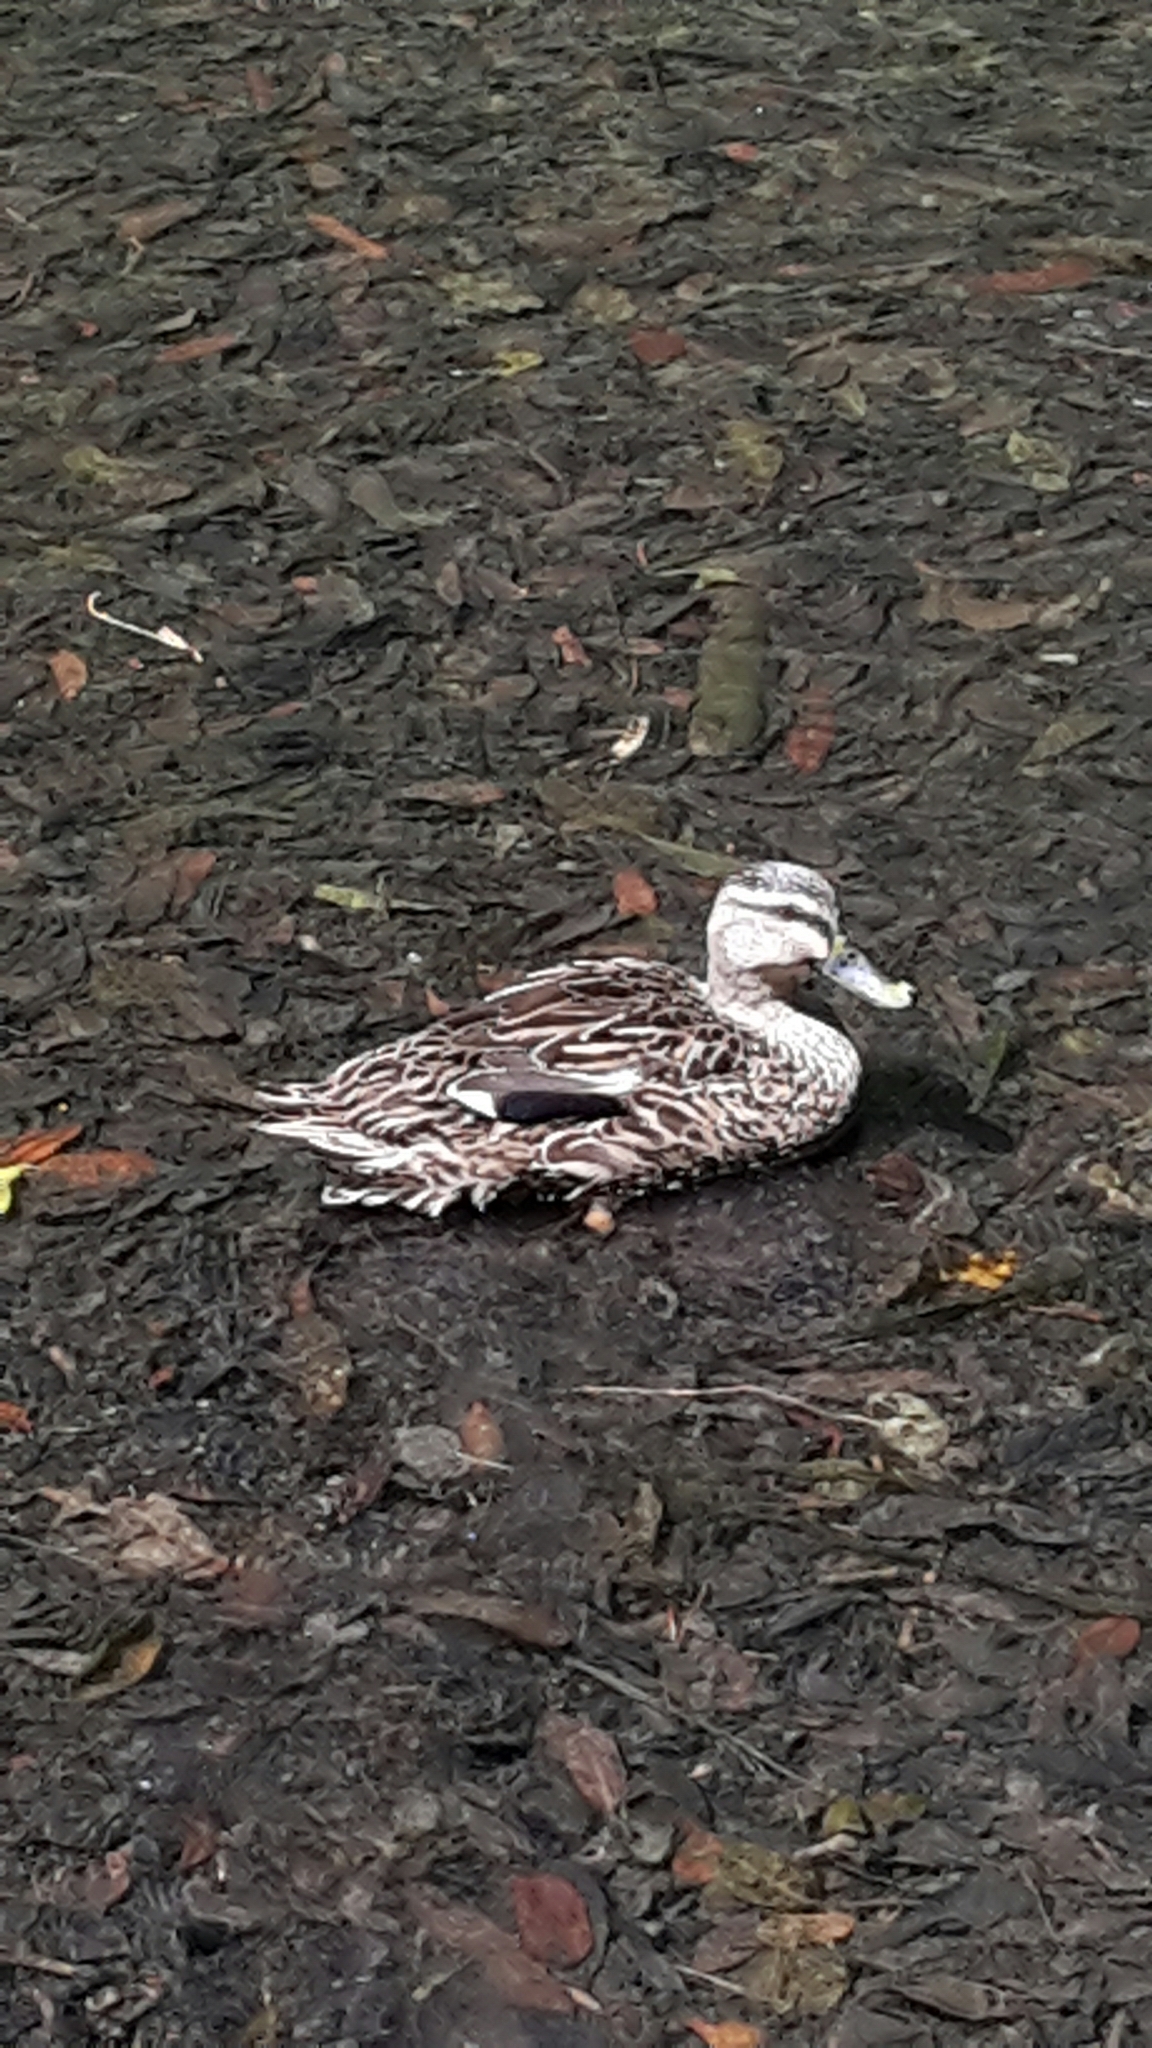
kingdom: Animalia
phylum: Chordata
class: Aves
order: Anseriformes
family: Anatidae
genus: Anas
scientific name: Anas
